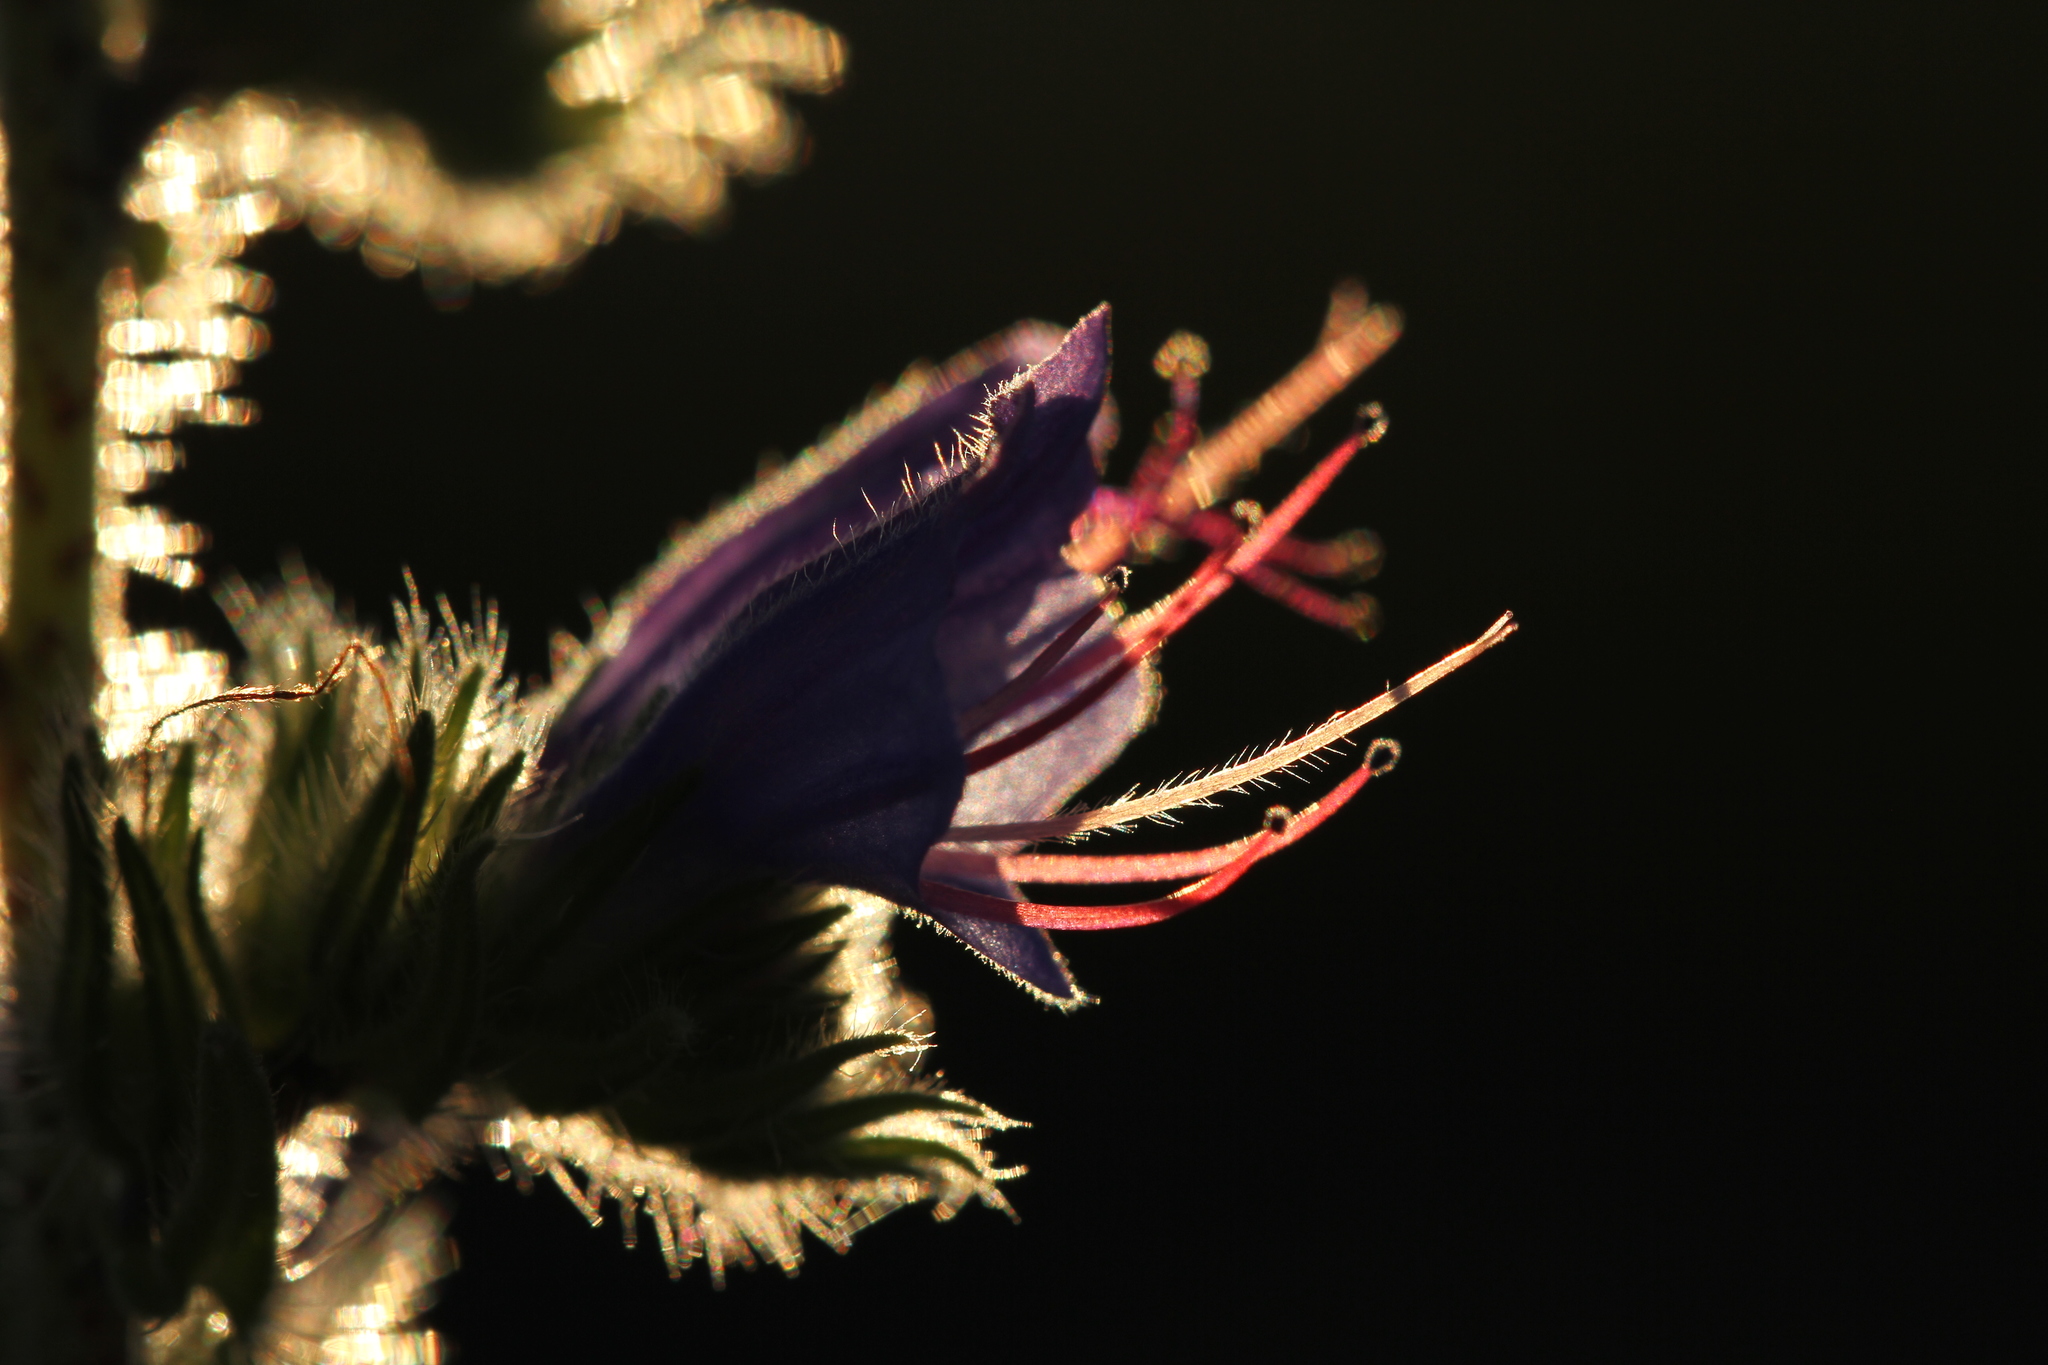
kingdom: Plantae
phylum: Tracheophyta
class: Magnoliopsida
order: Boraginales
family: Boraginaceae
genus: Echium
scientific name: Echium vulgare
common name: Common viper's bugloss
